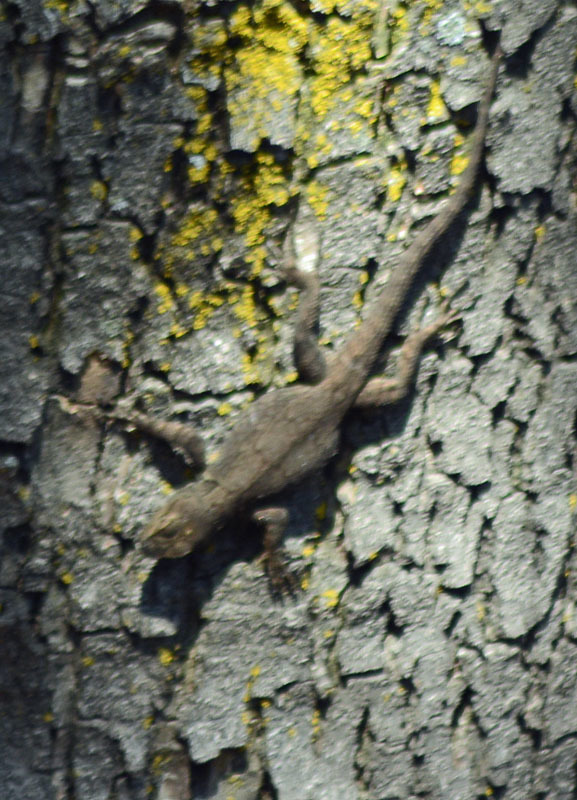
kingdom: Animalia
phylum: Chordata
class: Squamata
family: Phrynosomatidae
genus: Sceloporus
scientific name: Sceloporus grammicus
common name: Mesquite lizard
